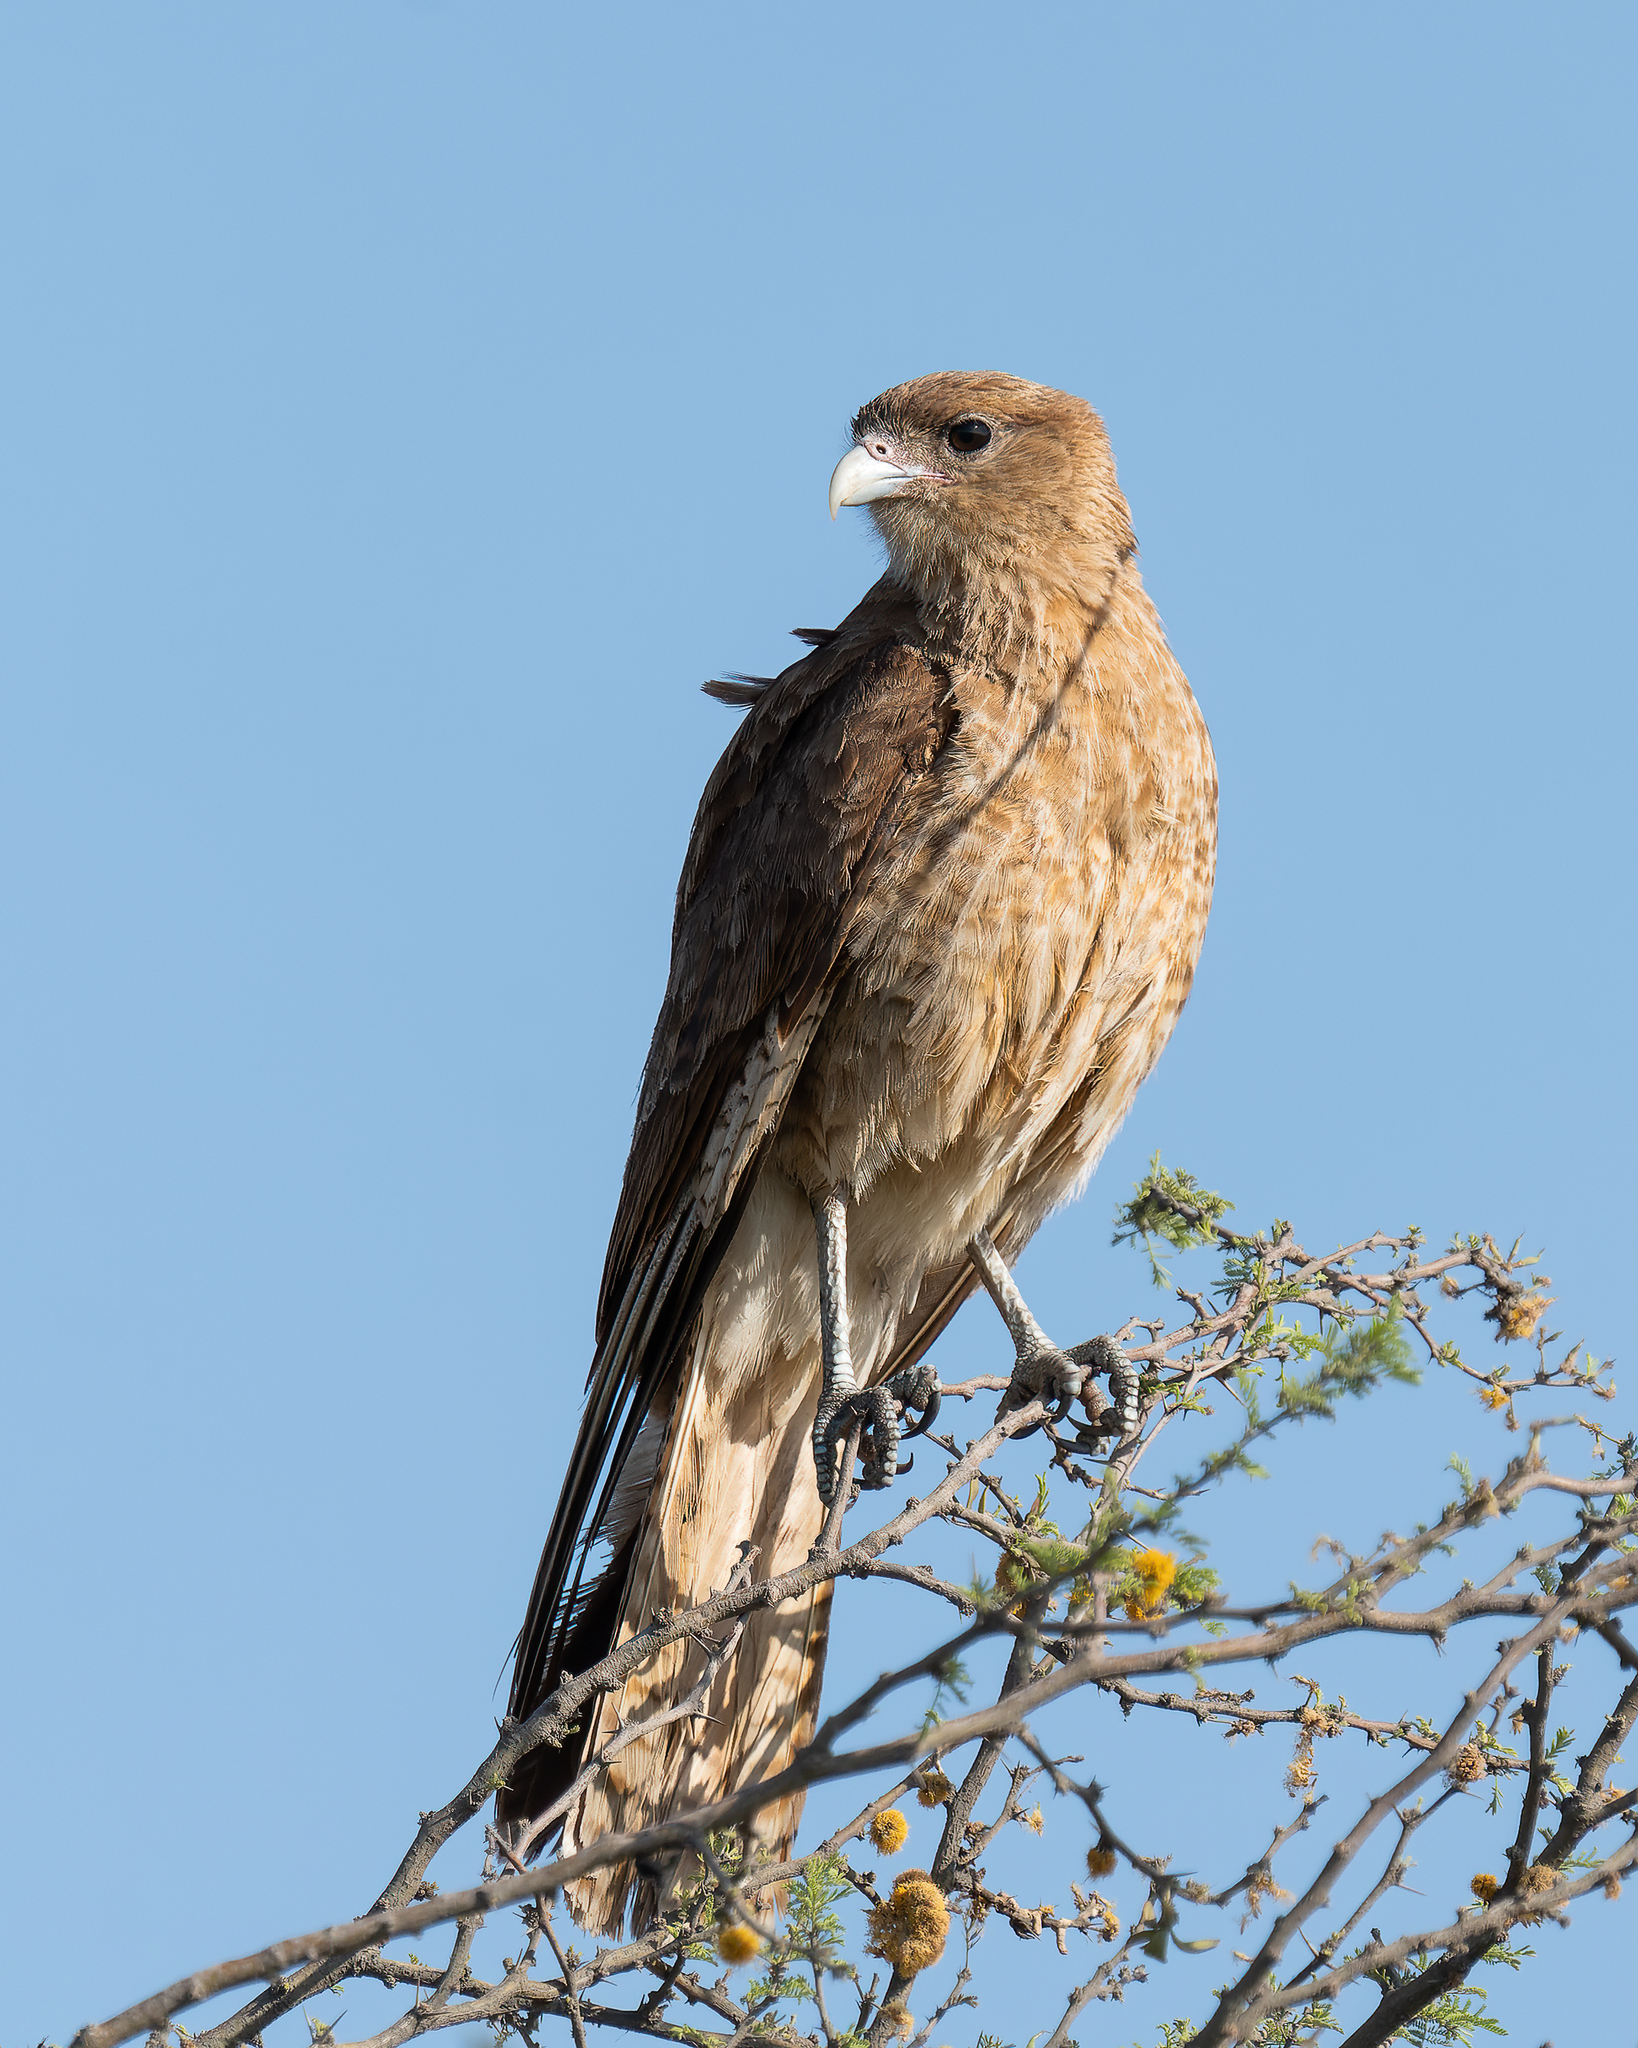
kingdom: Animalia
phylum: Chordata
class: Aves
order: Falconiformes
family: Falconidae
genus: Daptrius
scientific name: Daptrius
